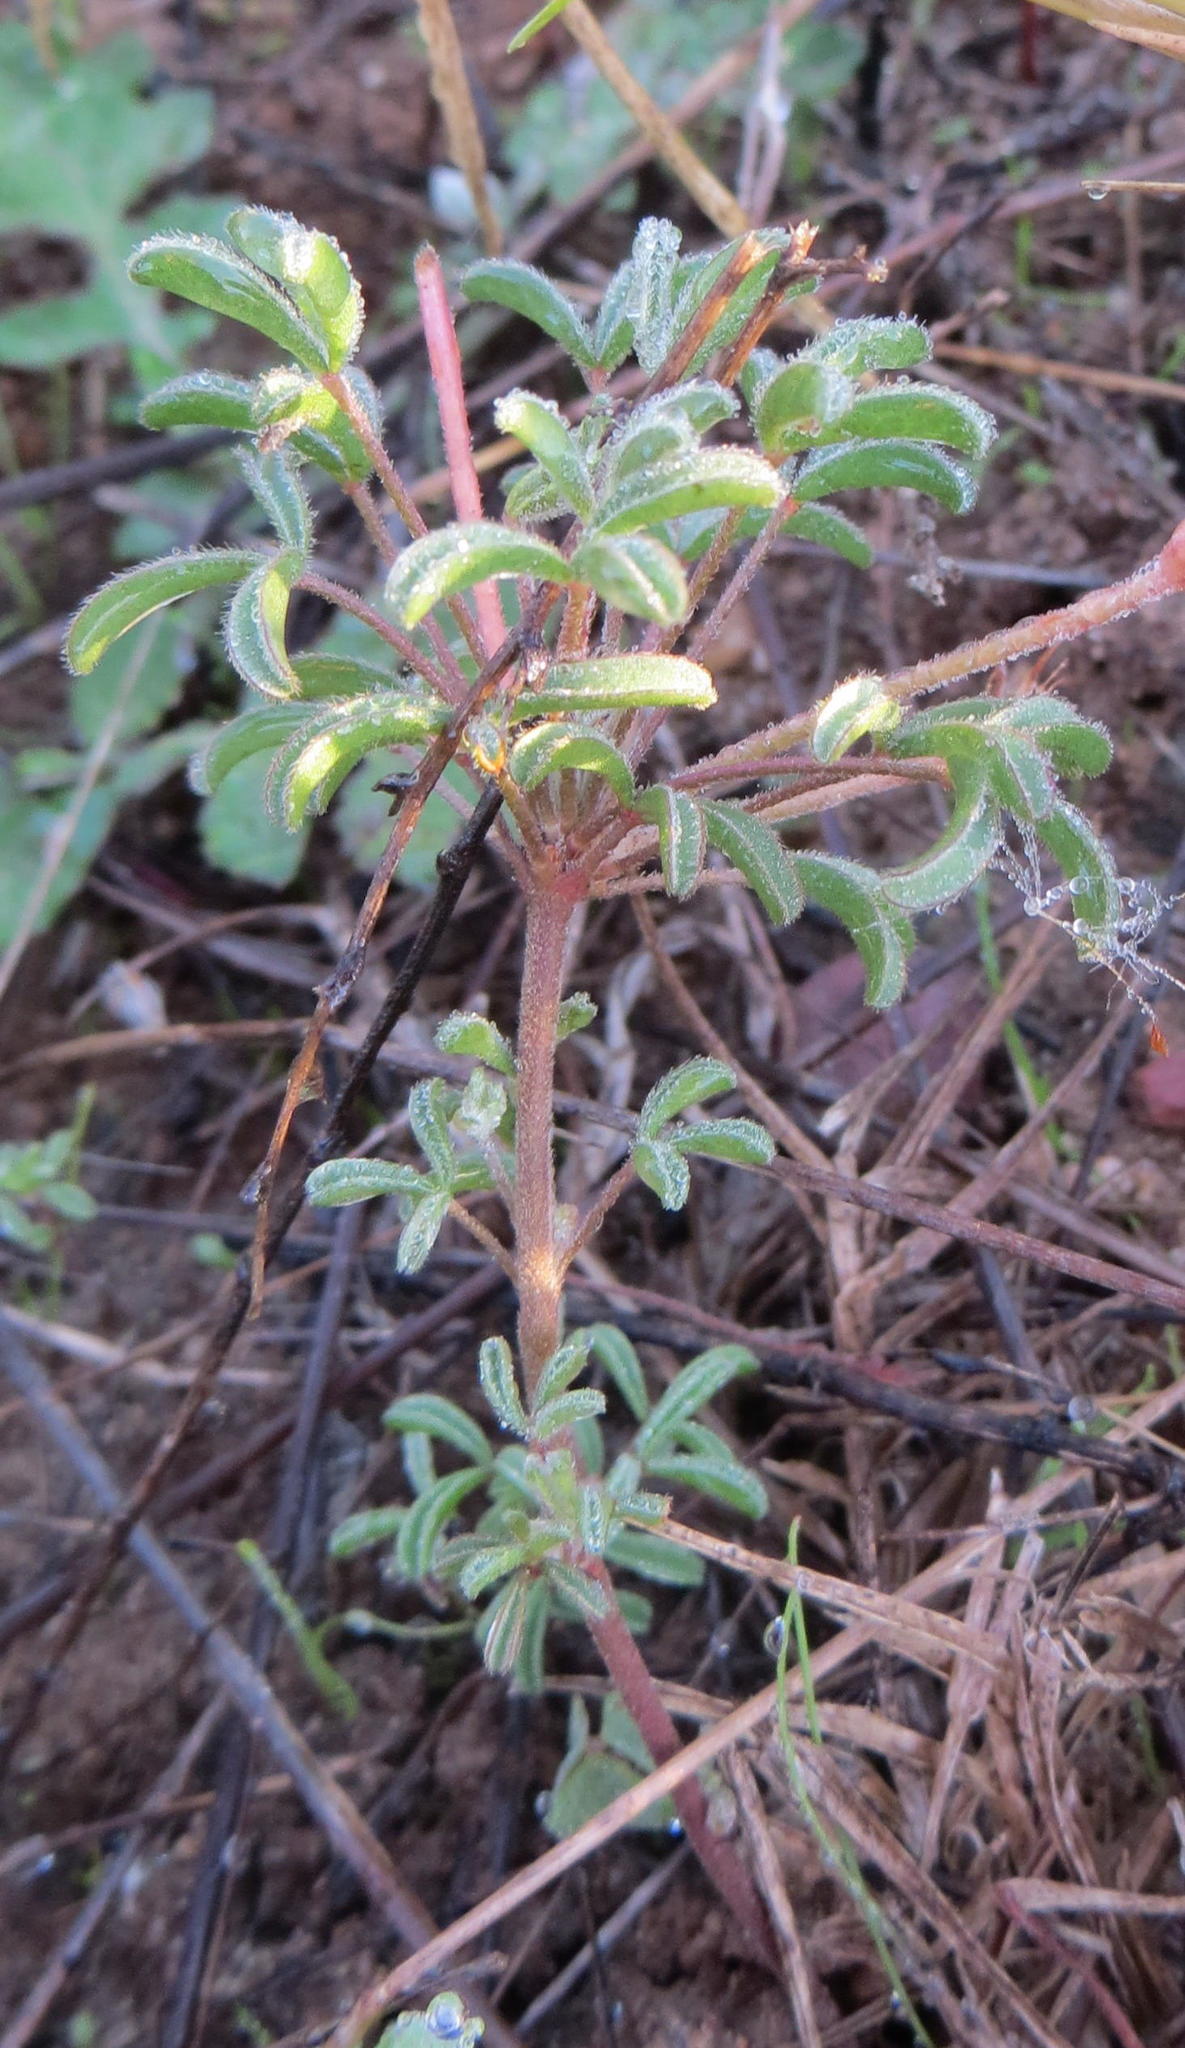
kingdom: Plantae
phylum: Tracheophyta
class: Magnoliopsida
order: Oxalidales
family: Oxalidaceae
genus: Oxalis
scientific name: Oxalis ciliaris
